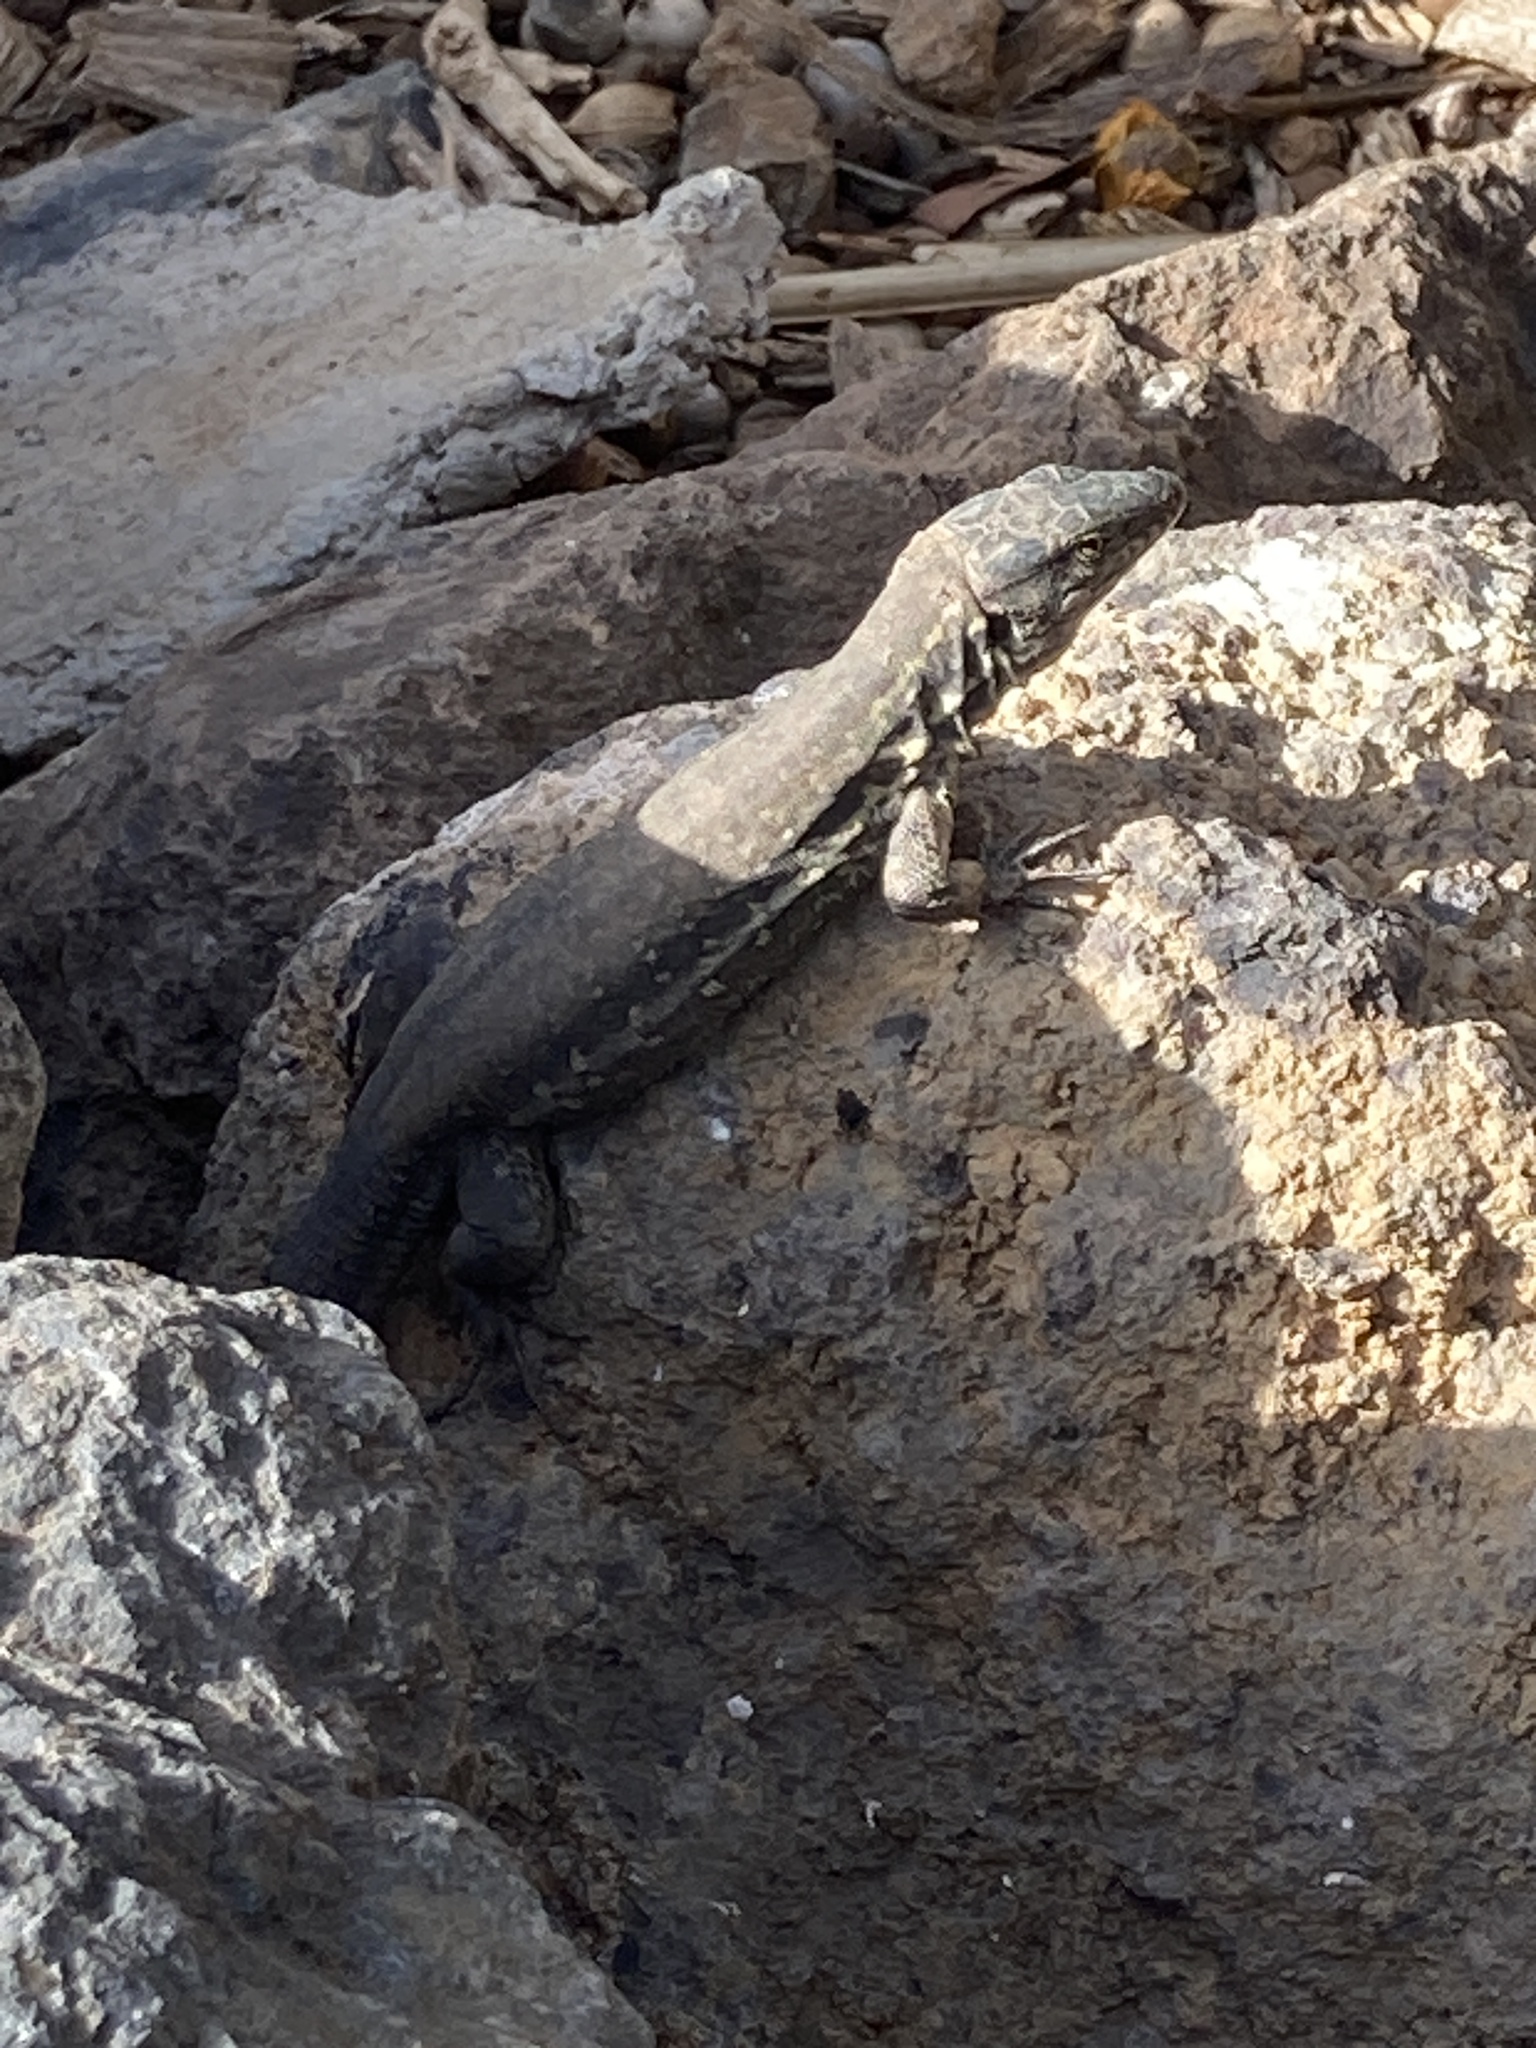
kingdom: Animalia
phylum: Chordata
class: Squamata
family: Lacertidae
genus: Gallotia
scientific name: Gallotia galloti
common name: Gallot's lizard
